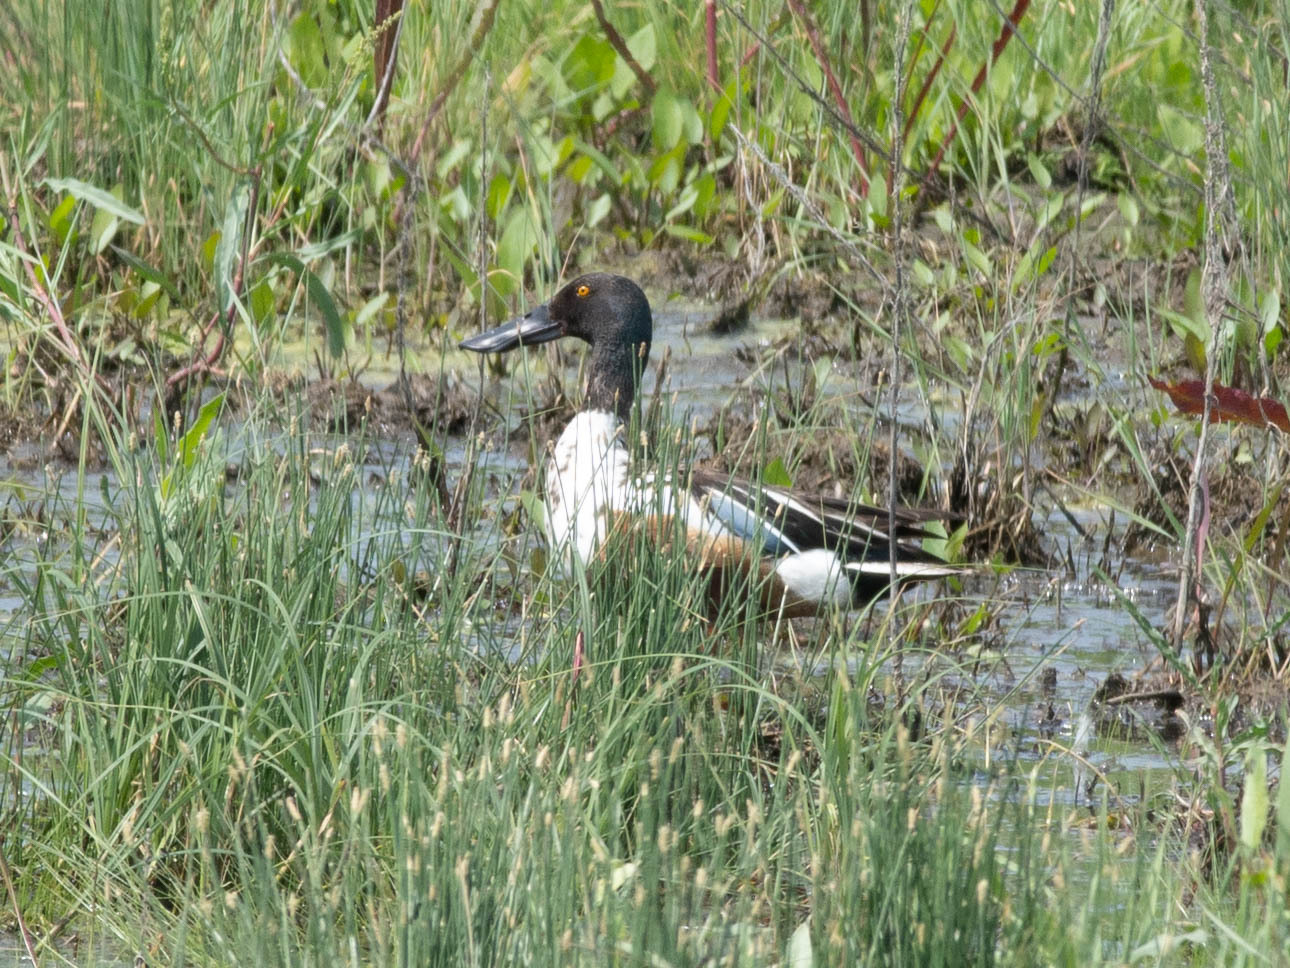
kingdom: Animalia
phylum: Chordata
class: Aves
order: Anseriformes
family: Anatidae
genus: Spatula
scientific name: Spatula clypeata
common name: Northern shoveler
